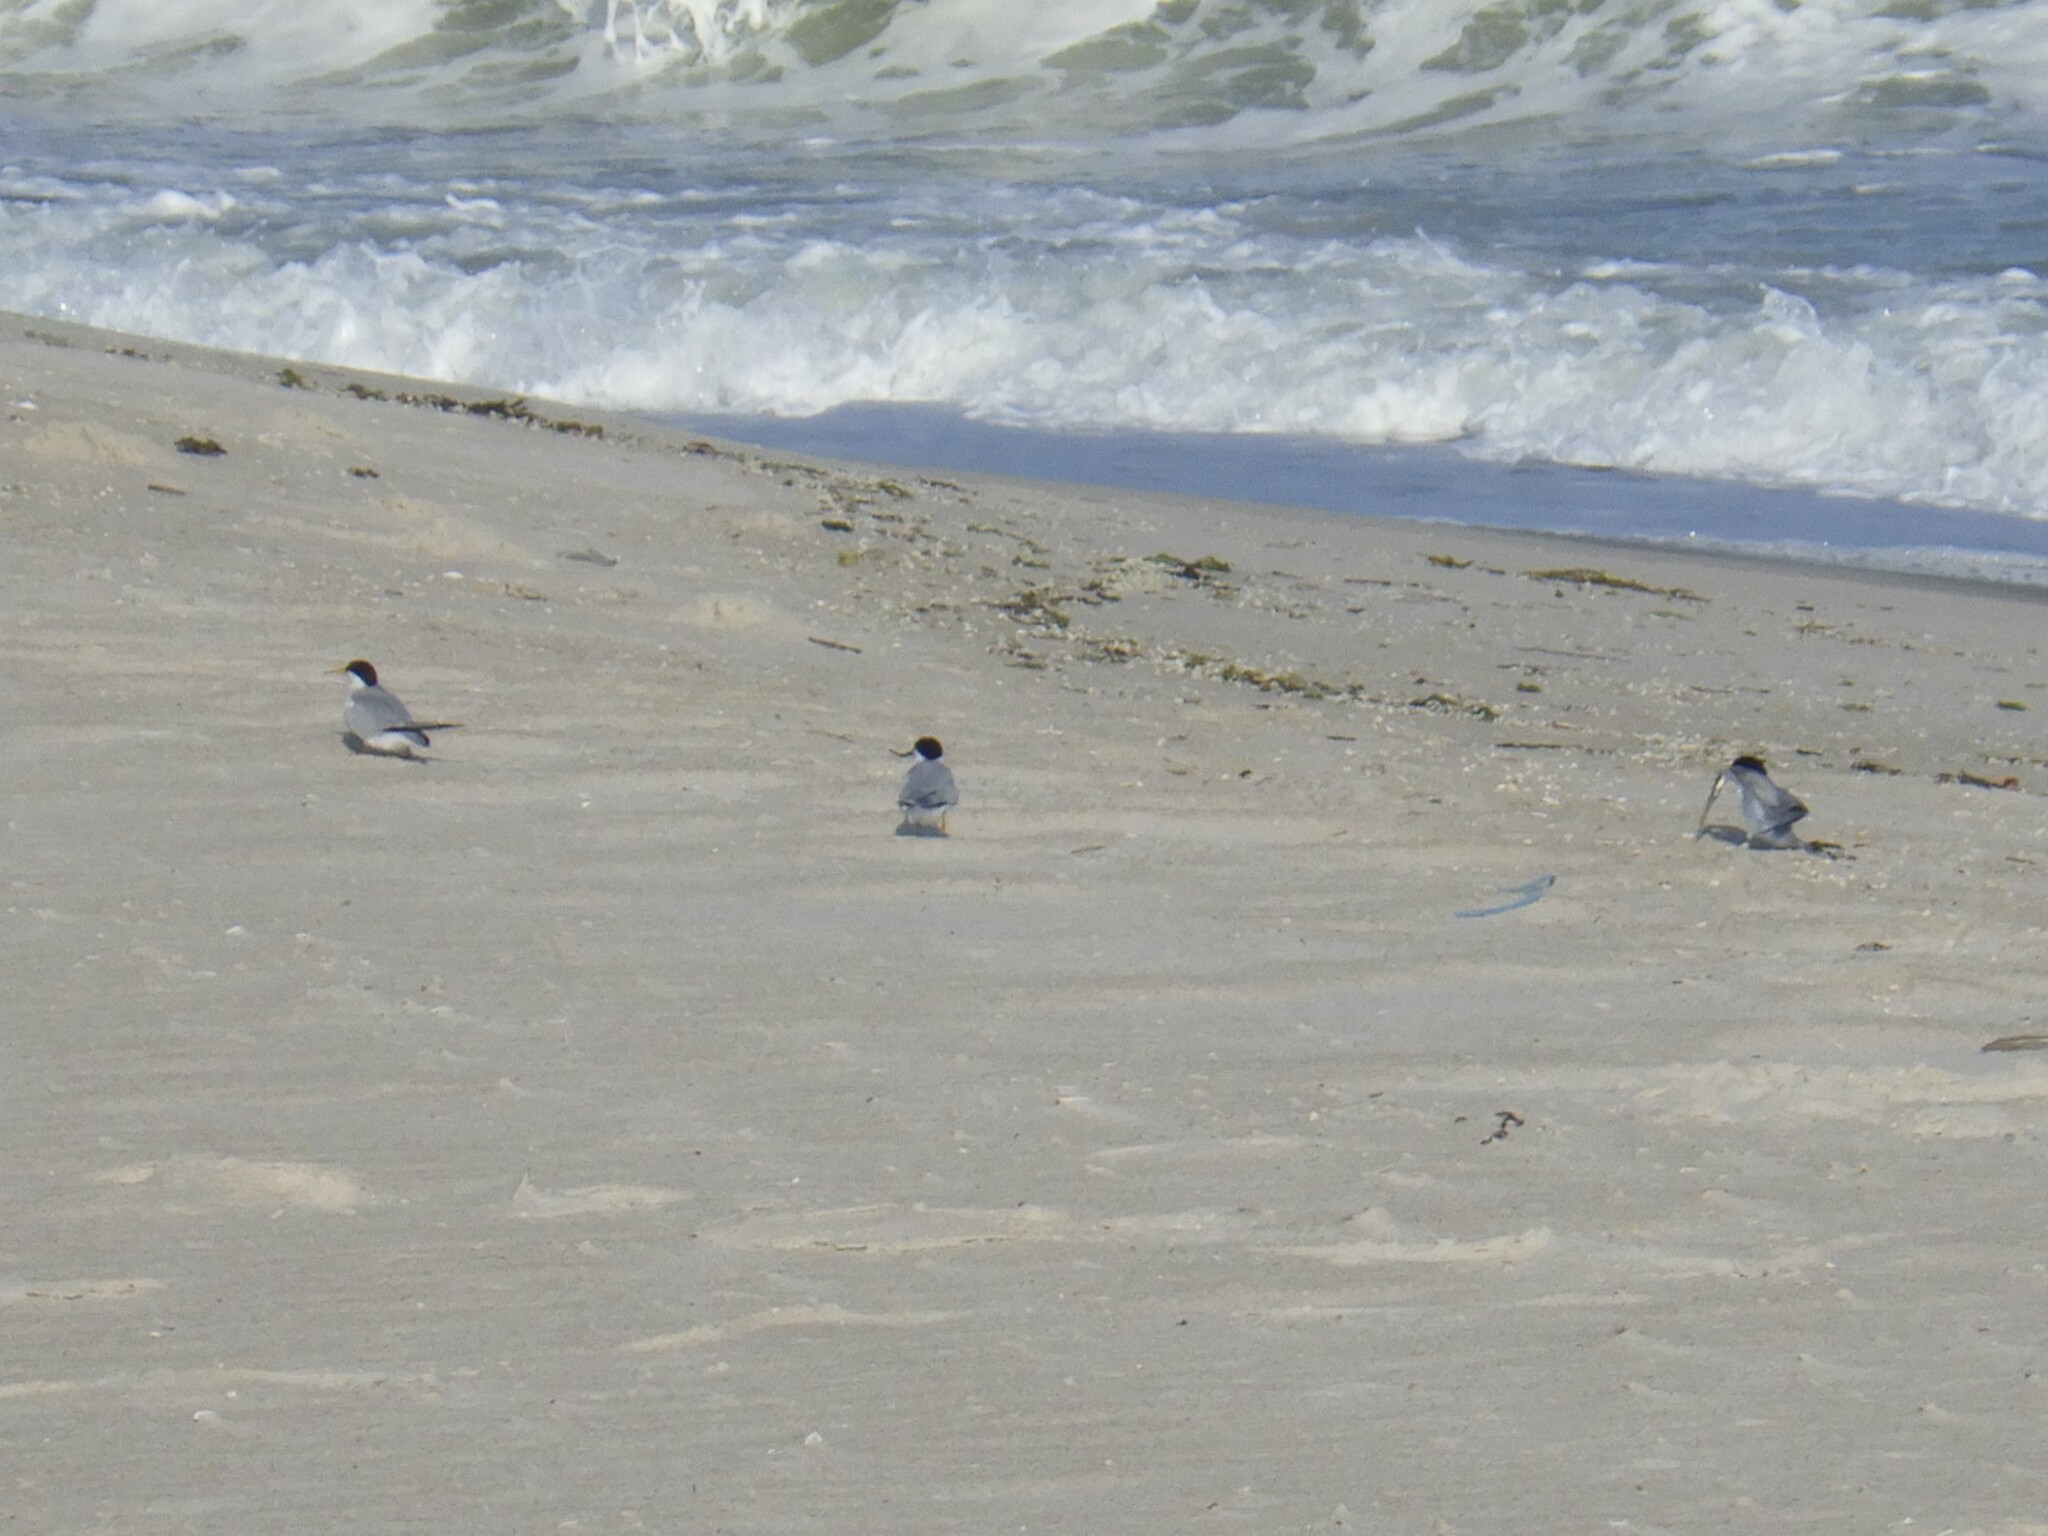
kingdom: Animalia
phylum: Chordata
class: Aves
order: Charadriiformes
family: Laridae
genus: Sternula
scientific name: Sternula antillarum
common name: Least tern
